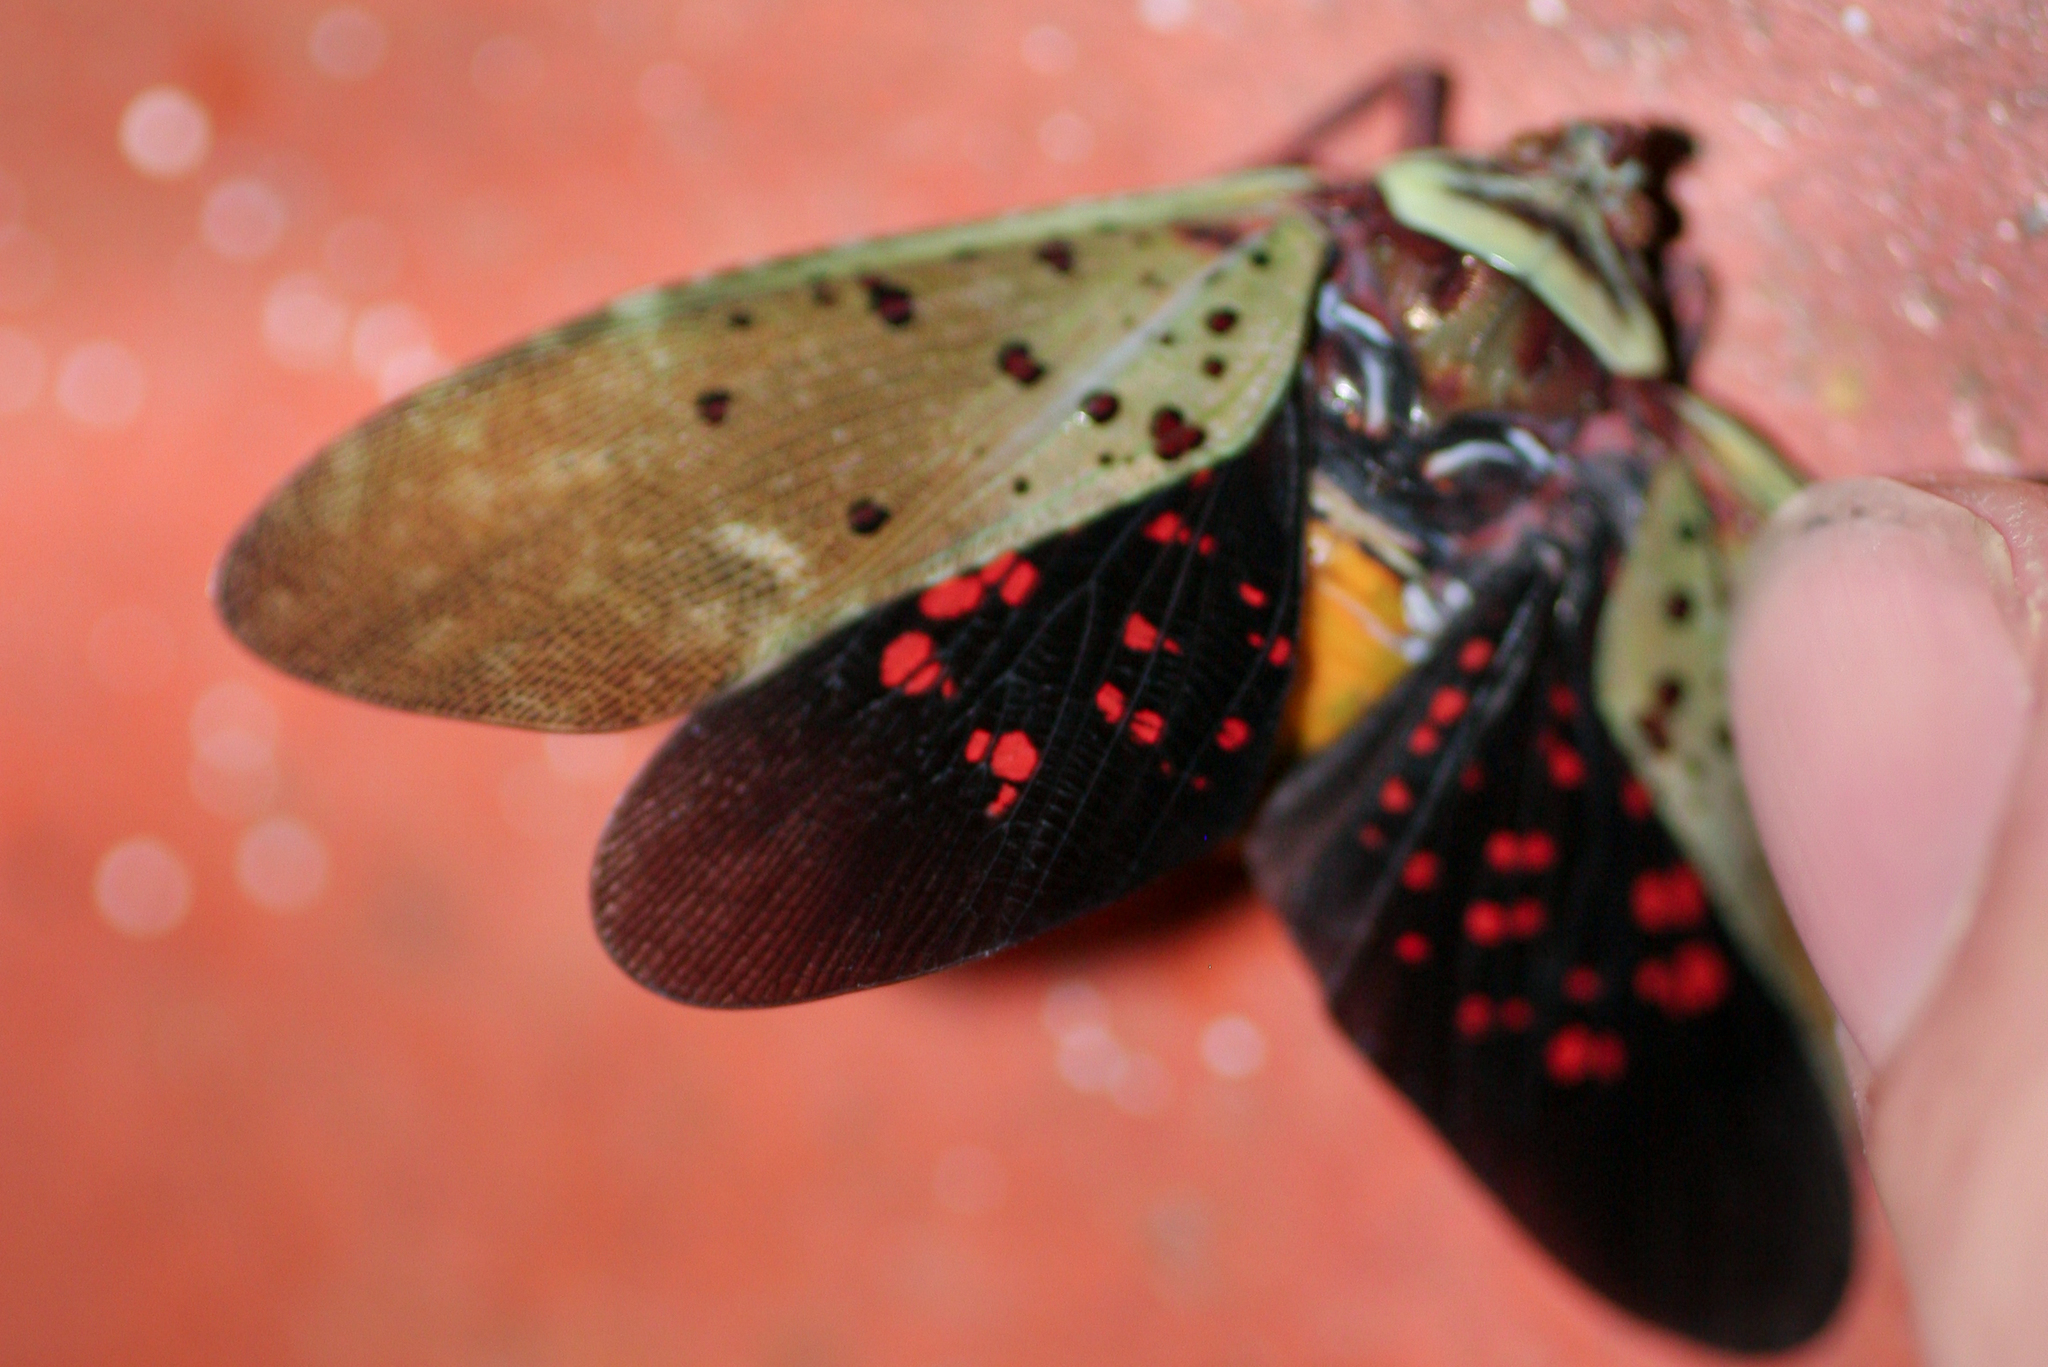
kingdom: Animalia
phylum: Arthropoda
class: Insecta
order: Hemiptera
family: Fulgoridae
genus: Copidocephala
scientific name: Copidocephala guttata
